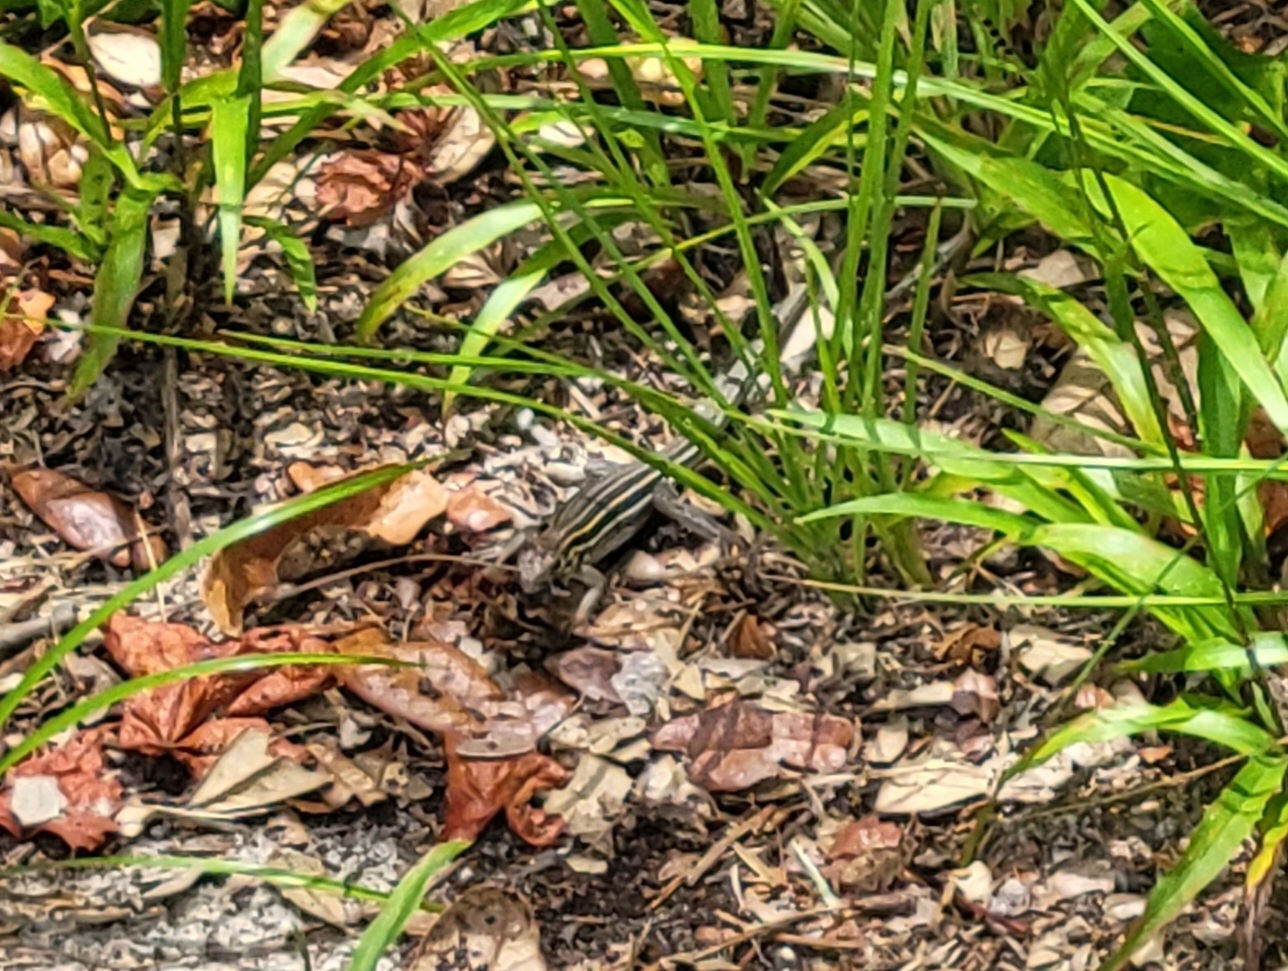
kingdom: Animalia
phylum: Chordata
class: Squamata
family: Teiidae
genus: Aspidoscelis
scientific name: Aspidoscelis sexlineatus
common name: Six-lined racerunner
